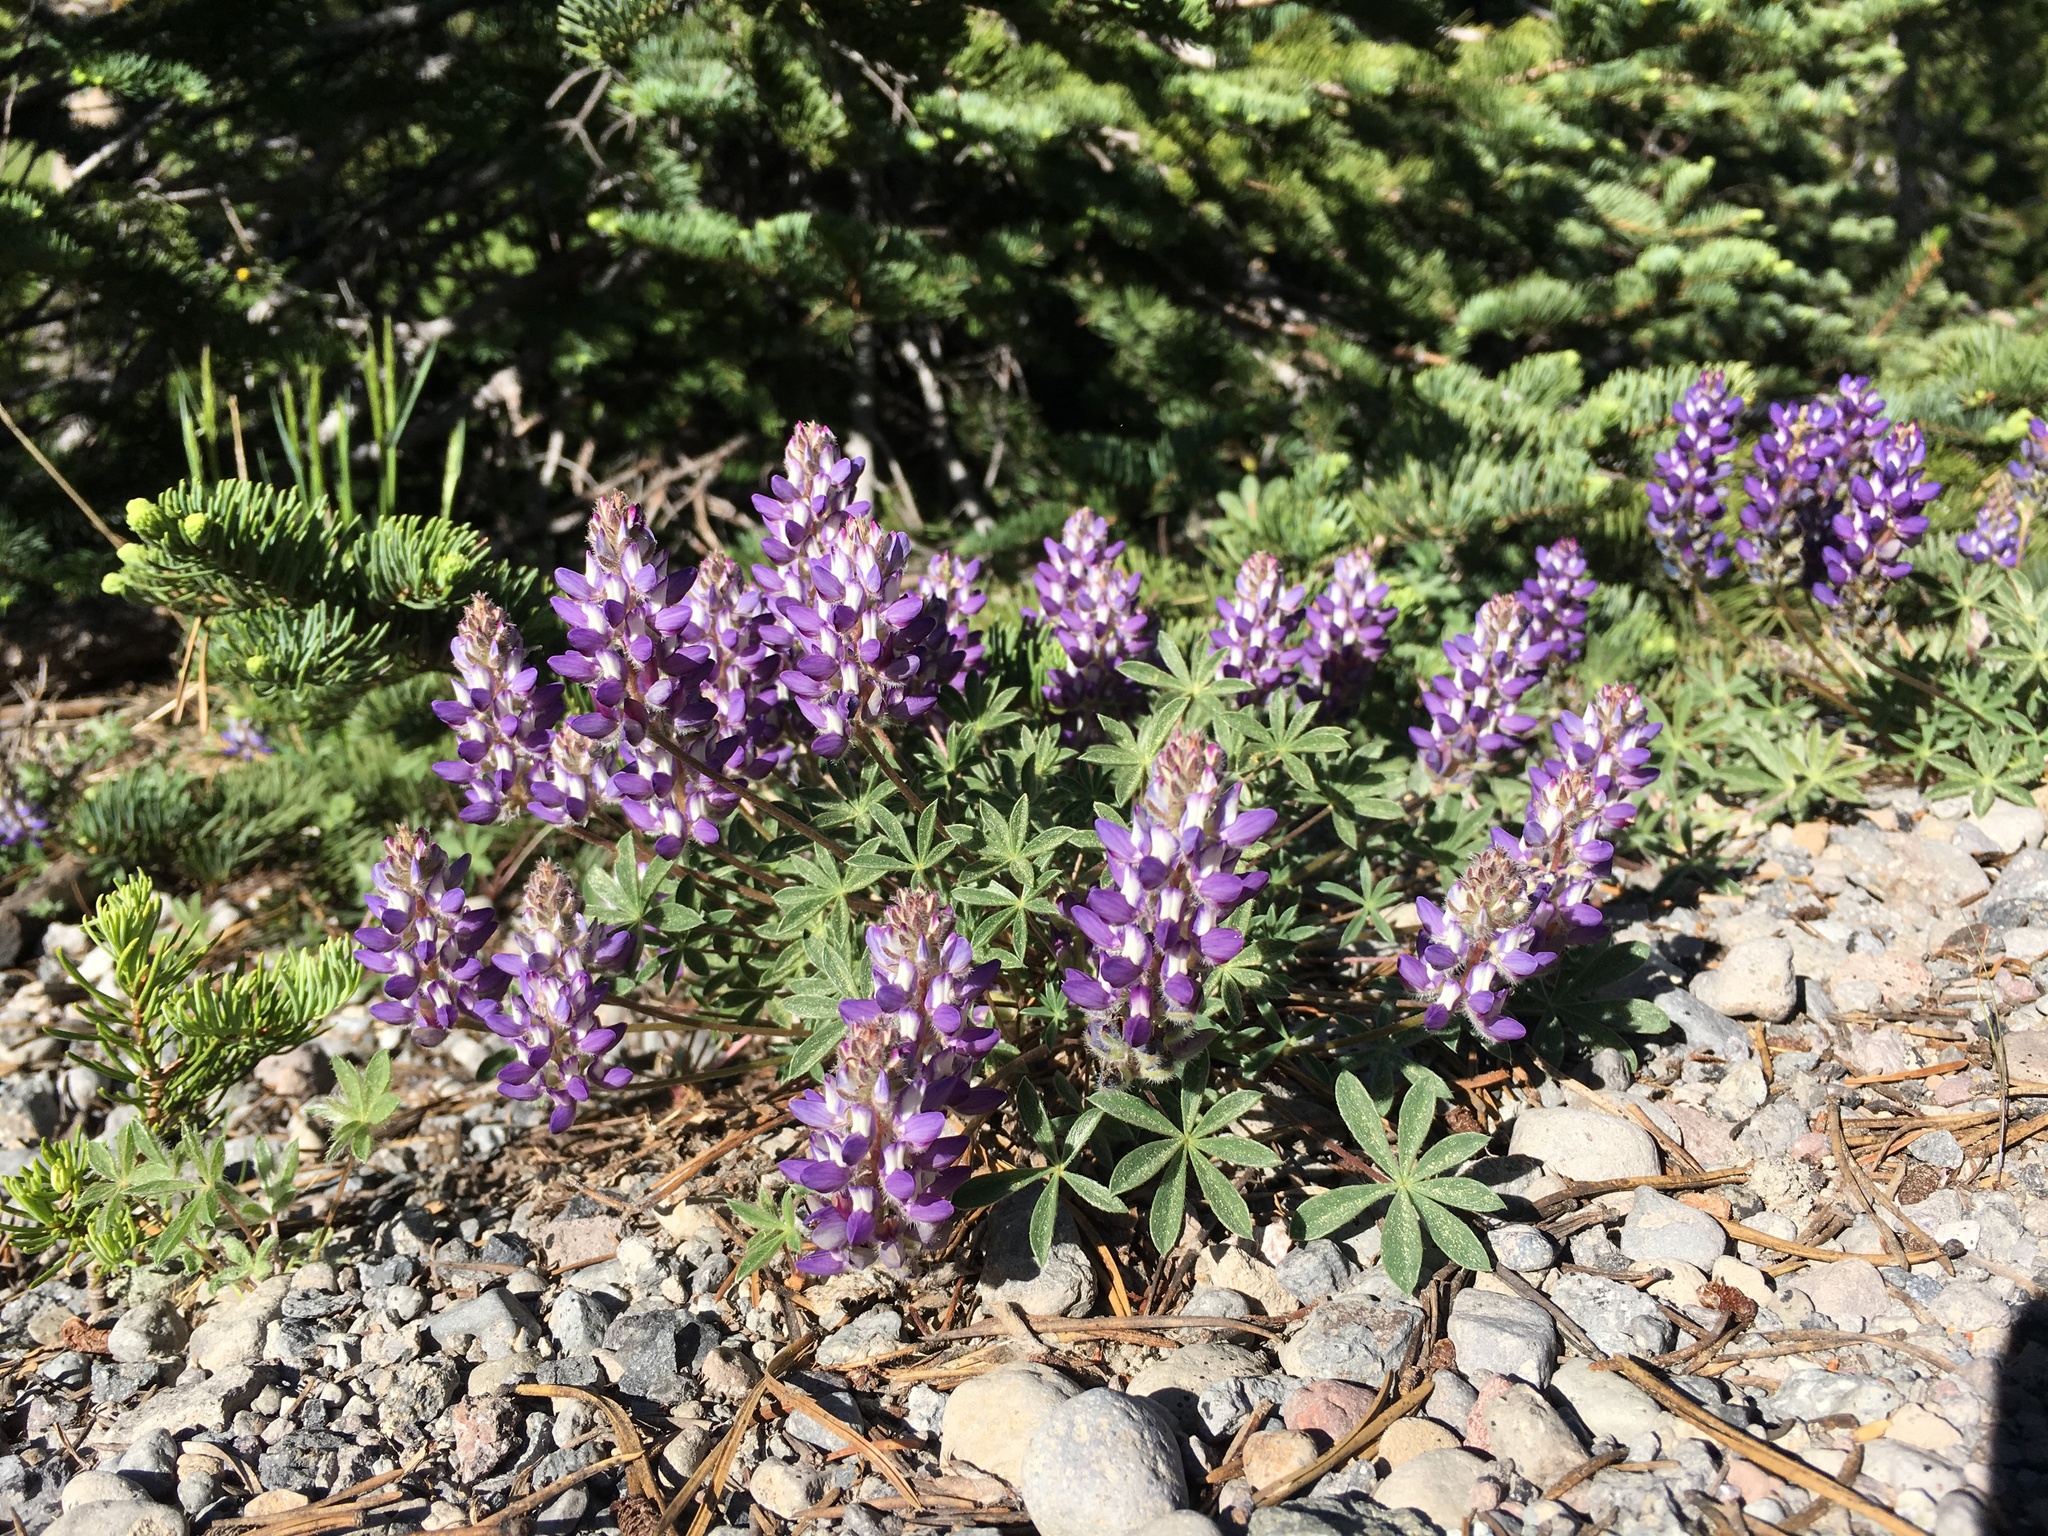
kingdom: Plantae
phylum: Tracheophyta
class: Magnoliopsida
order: Fabales
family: Fabaceae
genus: Lupinus
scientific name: Lupinus lepidus
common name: Prairie lupine
